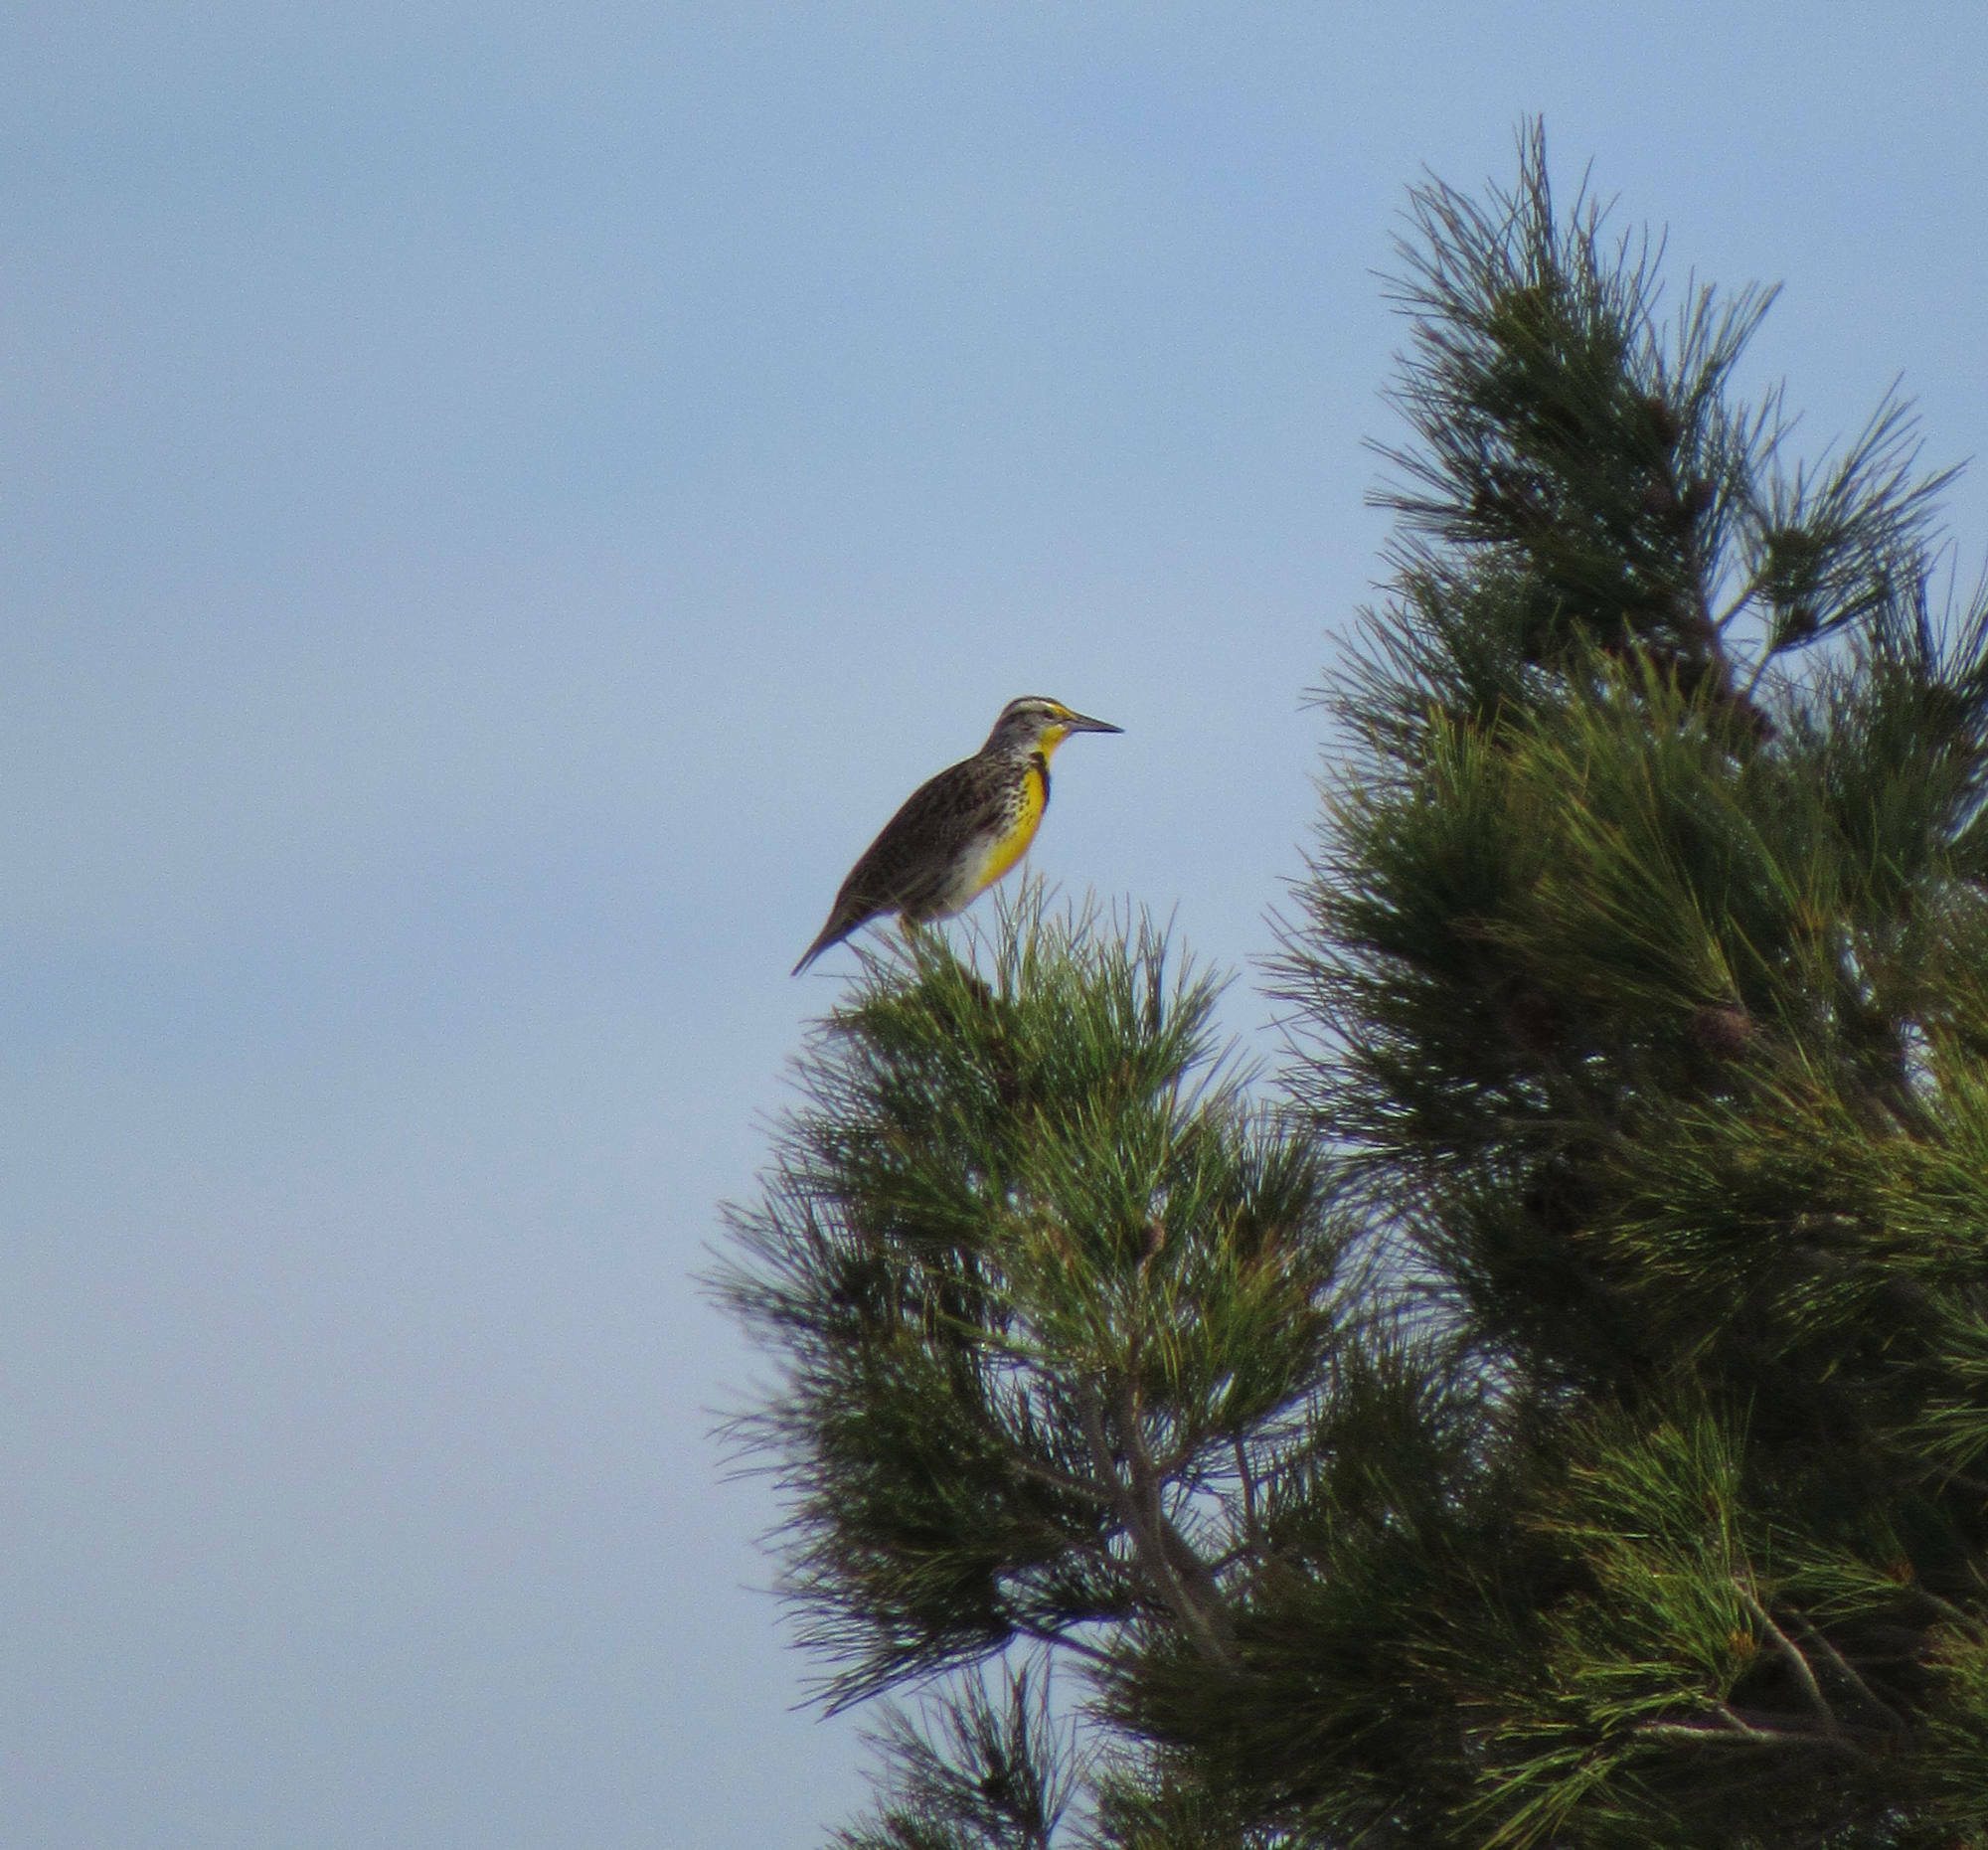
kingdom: Animalia
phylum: Chordata
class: Aves
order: Passeriformes
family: Icteridae
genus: Sturnella
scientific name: Sturnella neglecta
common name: Western meadowlark
